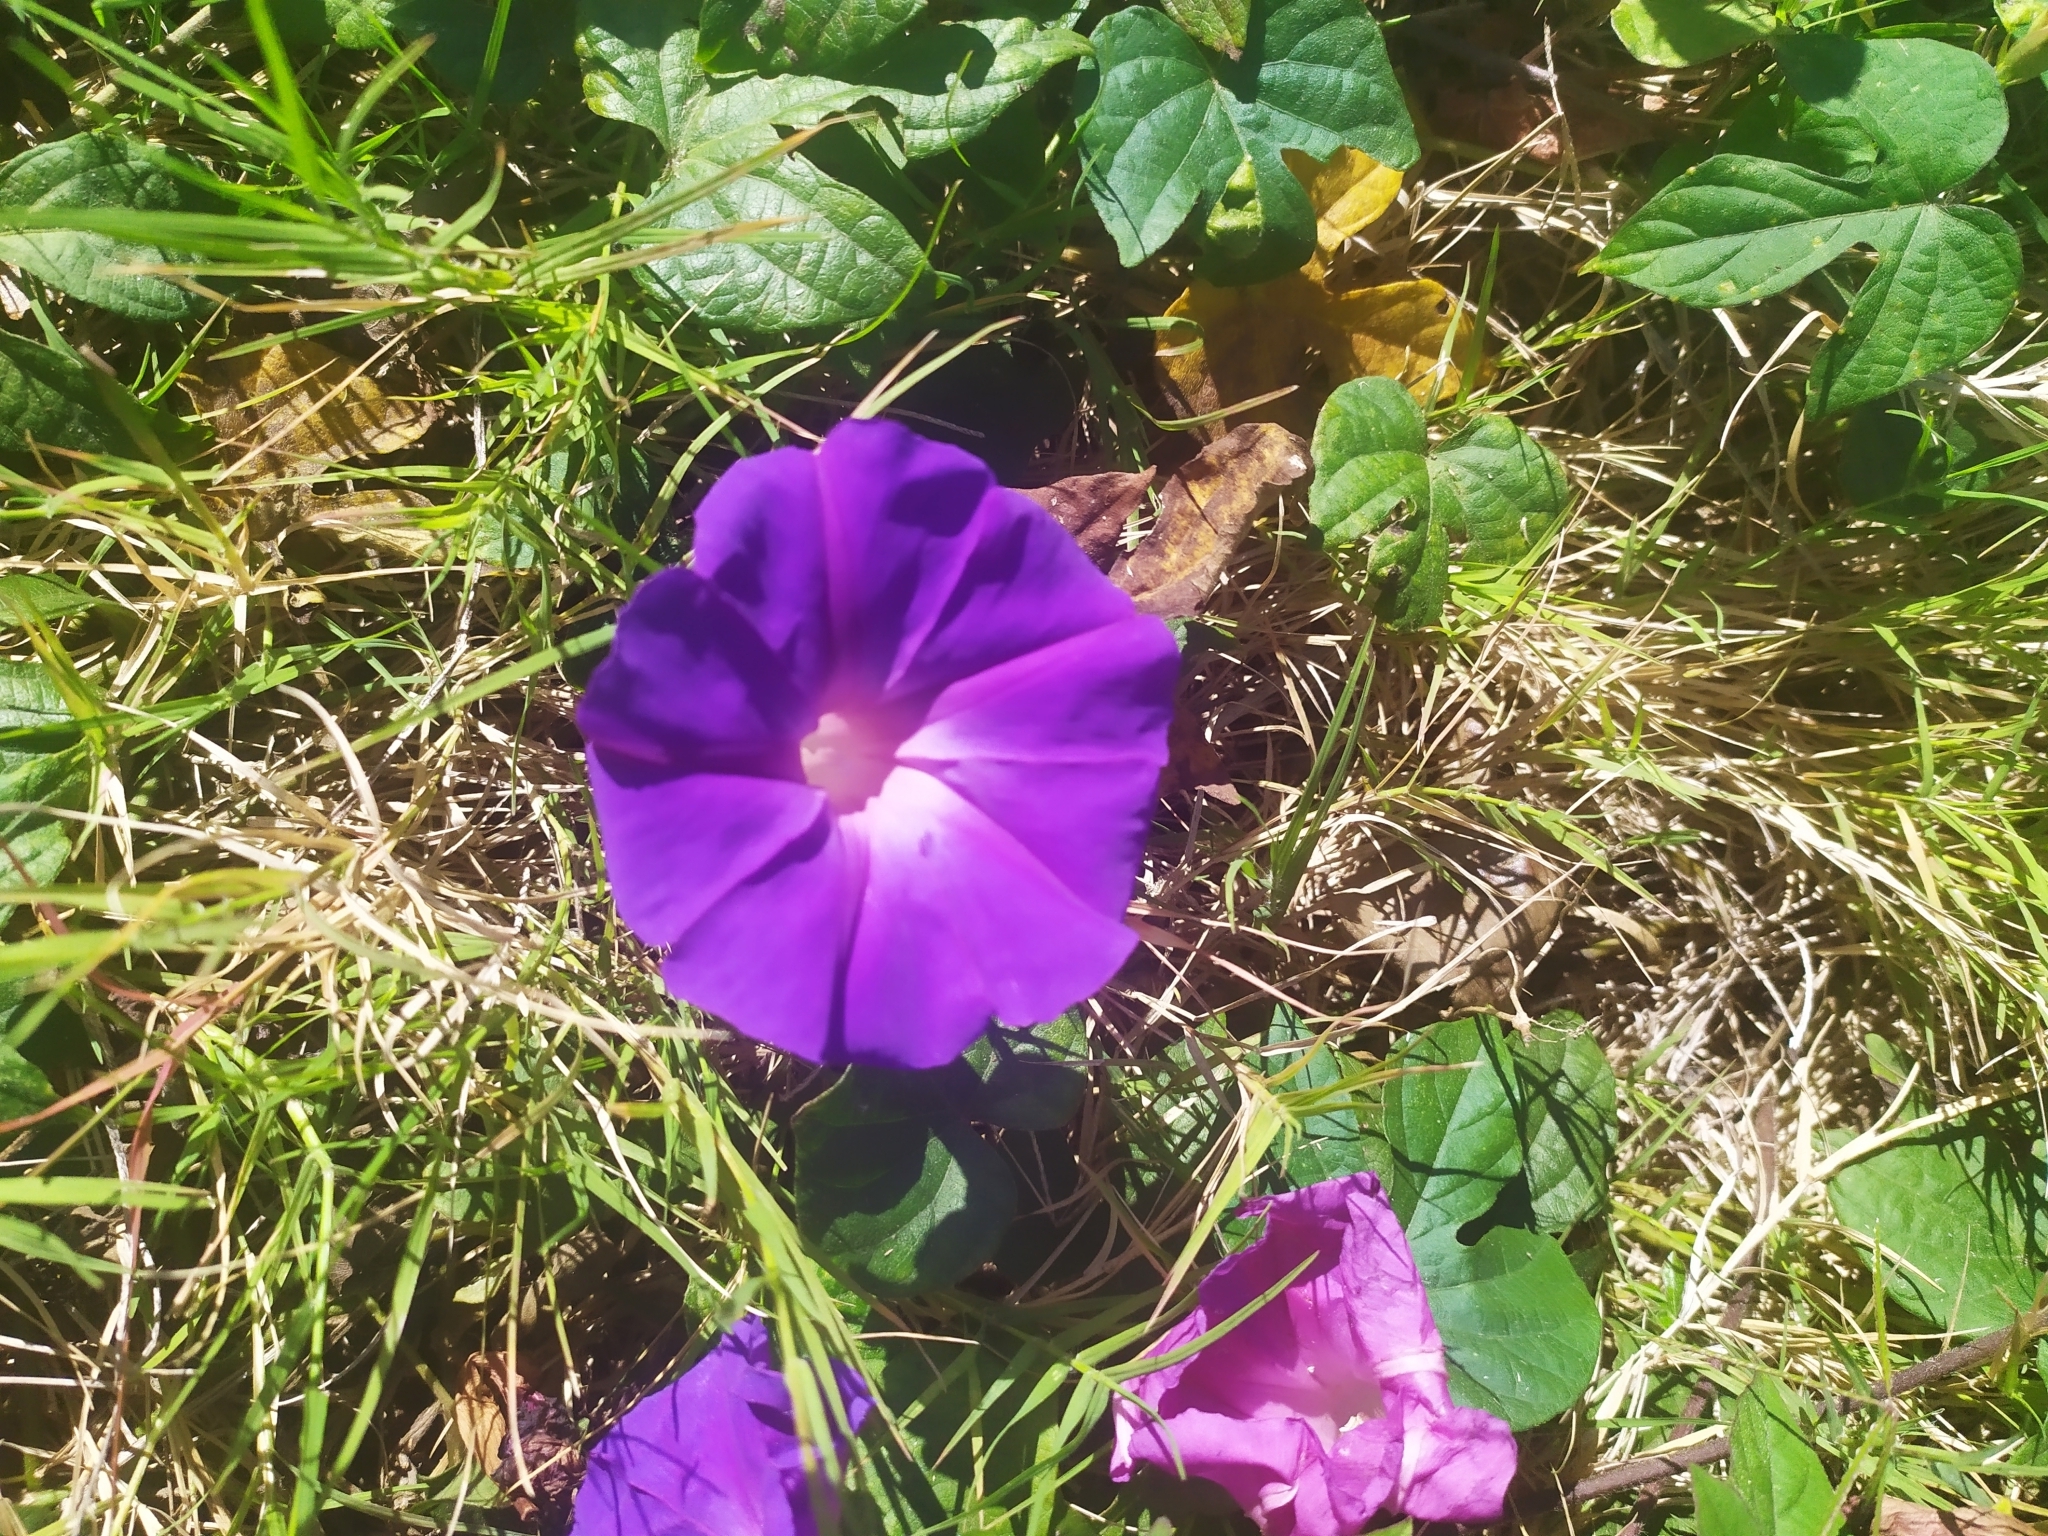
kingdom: Plantae
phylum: Tracheophyta
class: Magnoliopsida
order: Solanales
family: Convolvulaceae
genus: Ipomoea
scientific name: Ipomoea indica
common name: Blue dawnflower
